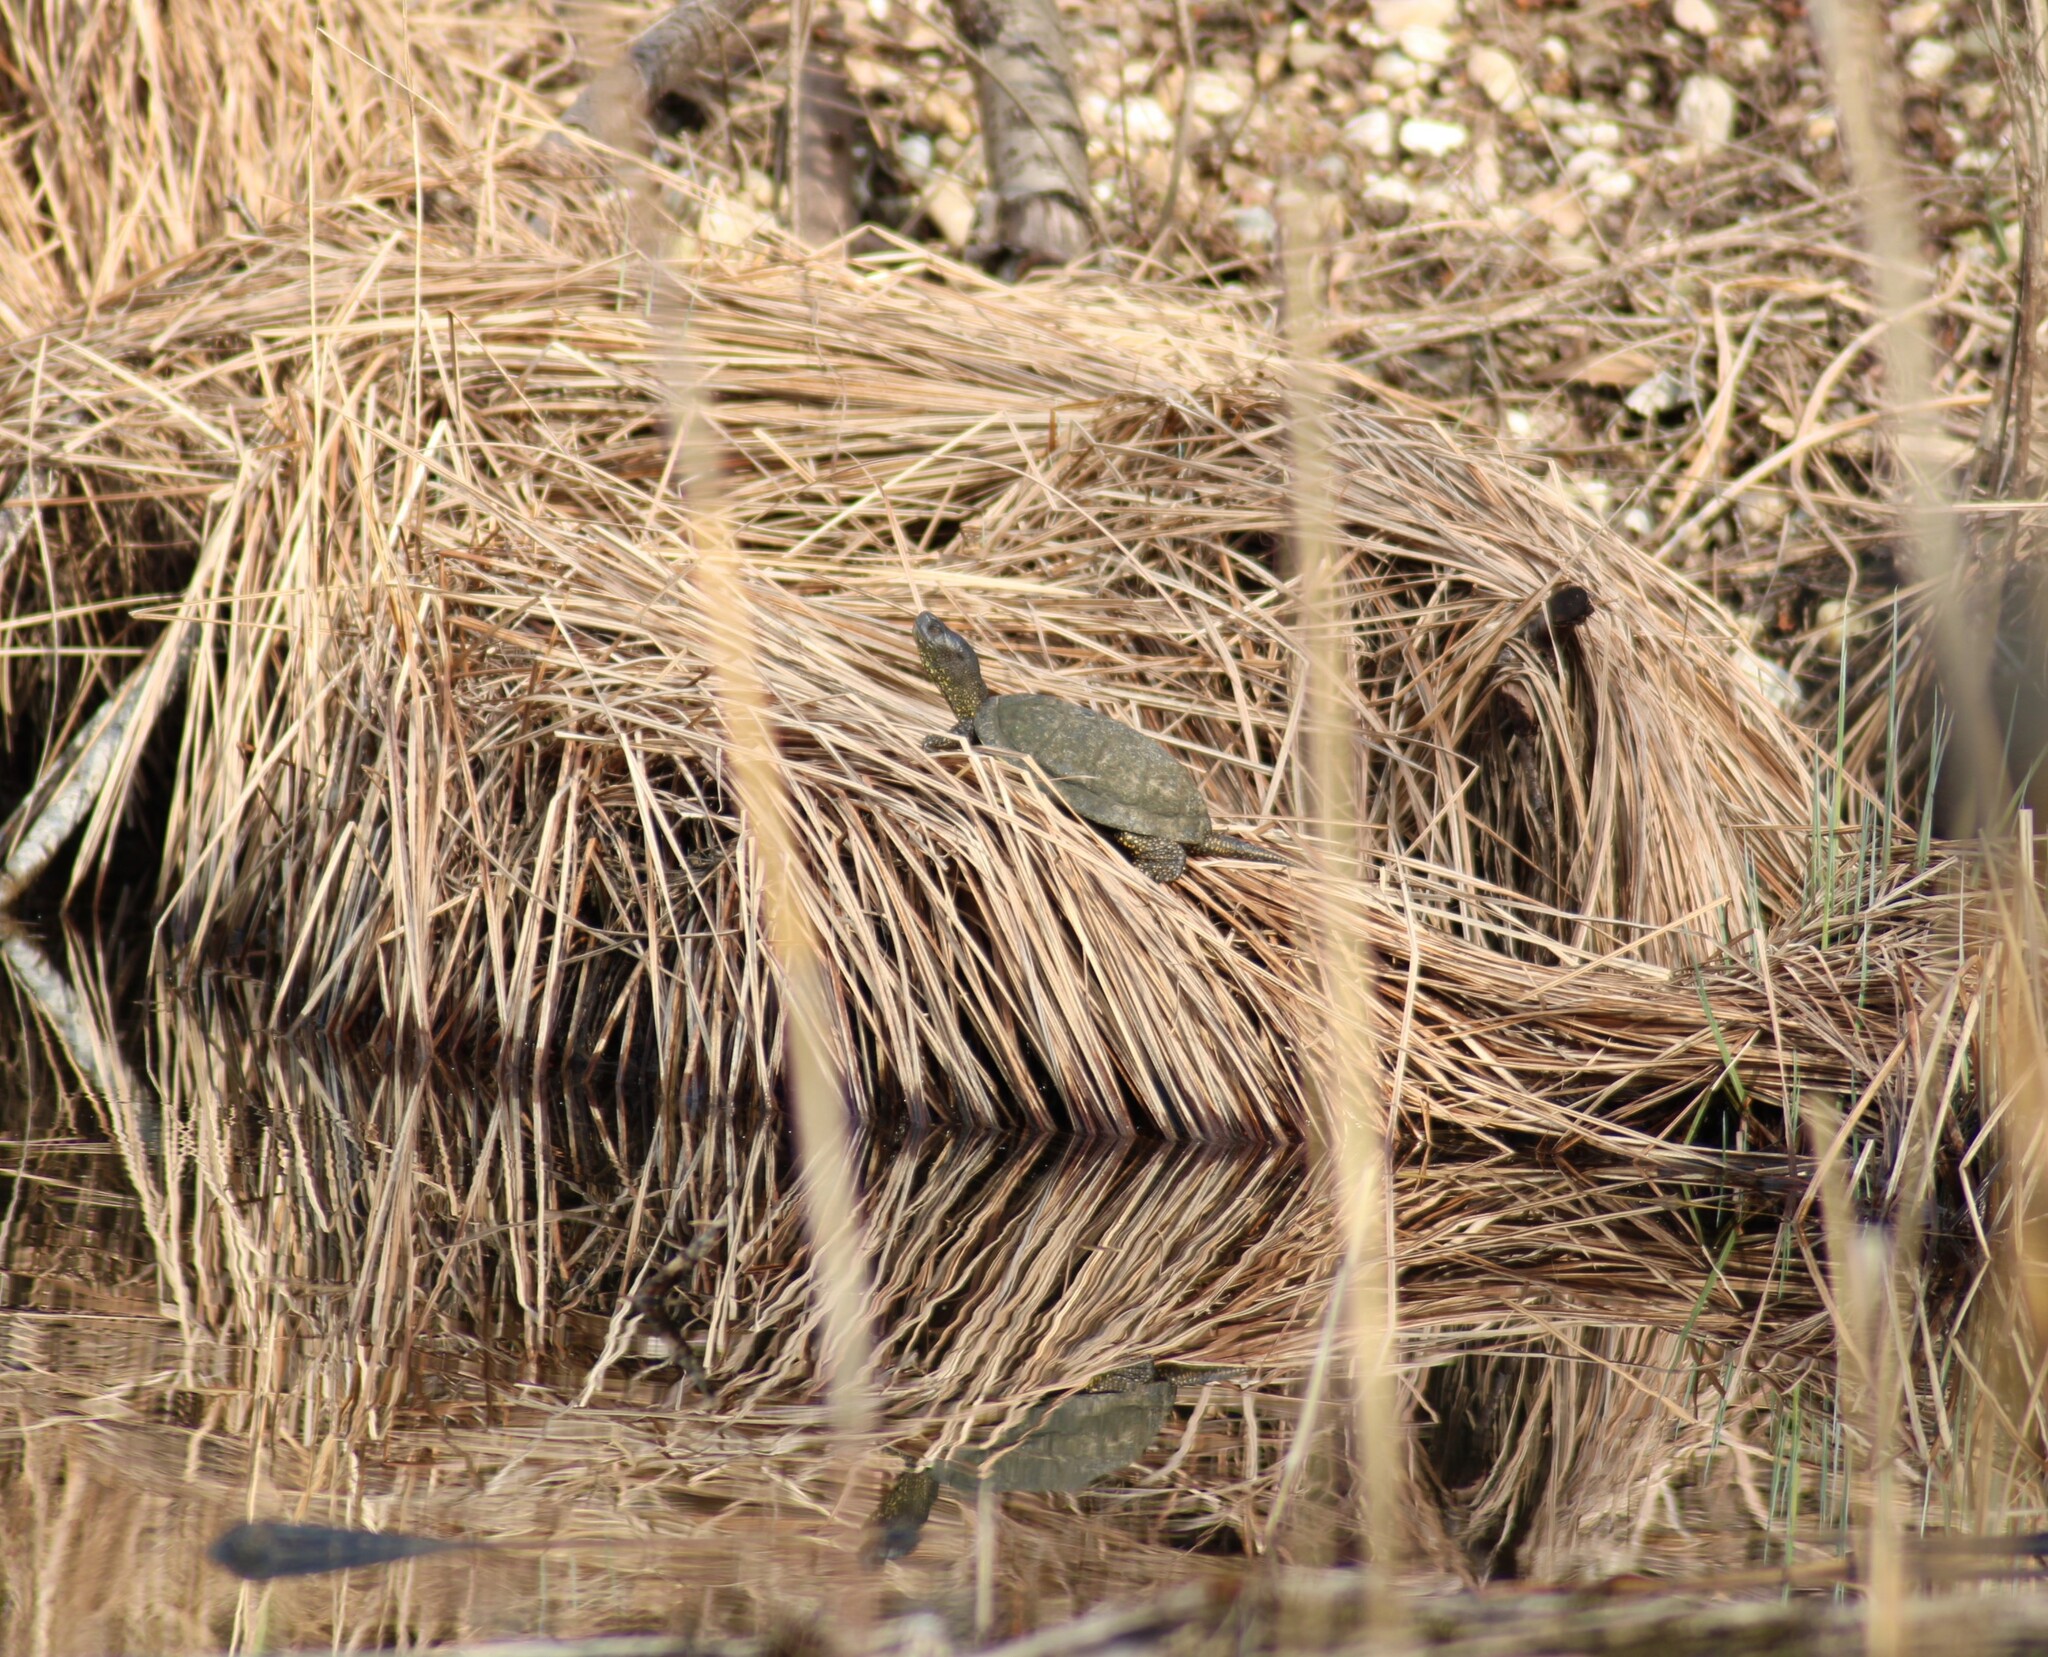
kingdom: Animalia
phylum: Chordata
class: Testudines
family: Emydidae
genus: Emys
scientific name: Emys orbicularis
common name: European pond turtle
